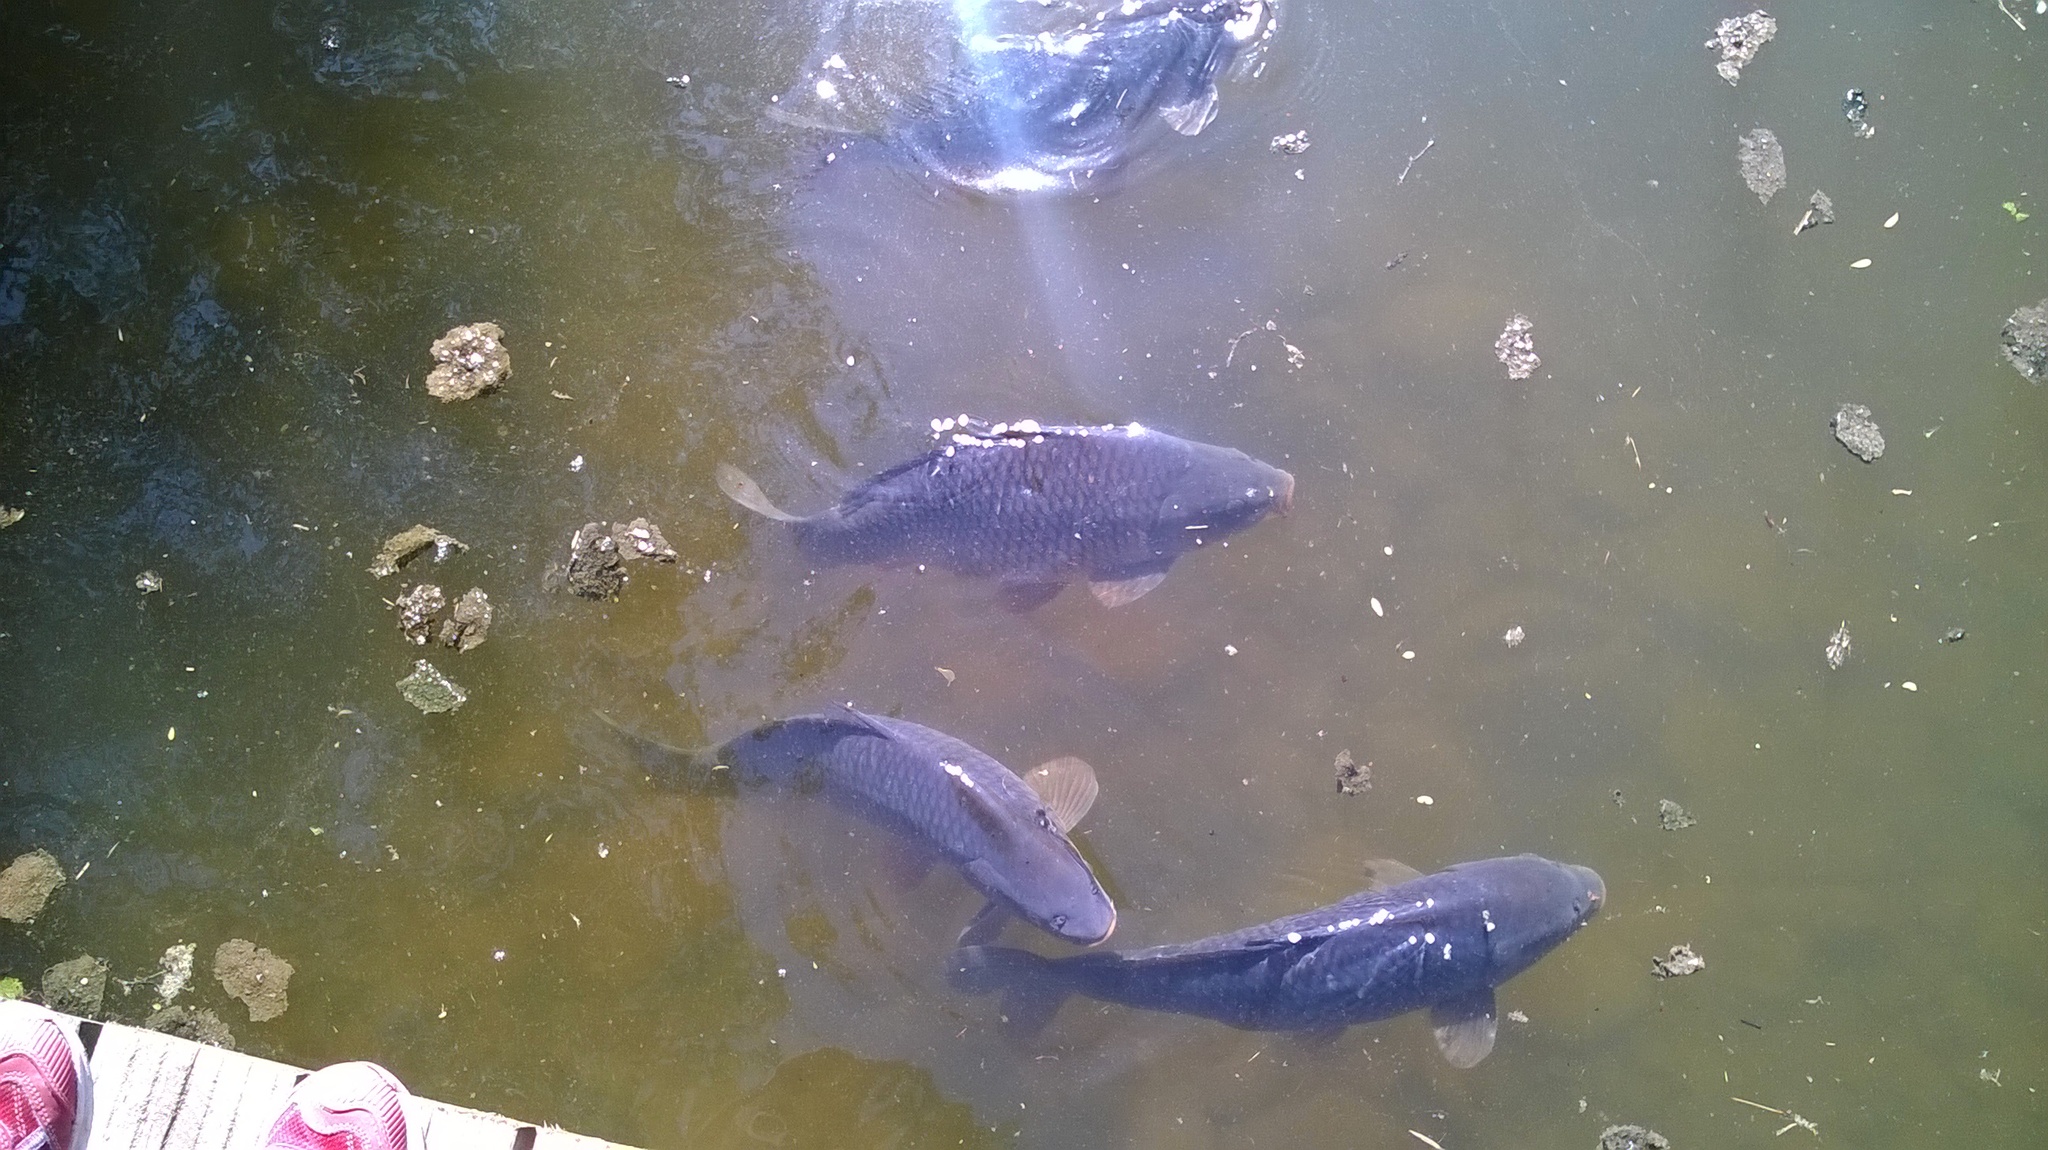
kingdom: Animalia
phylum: Chordata
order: Cypriniformes
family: Cyprinidae
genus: Cyprinus
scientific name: Cyprinus carpio
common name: Common carp
